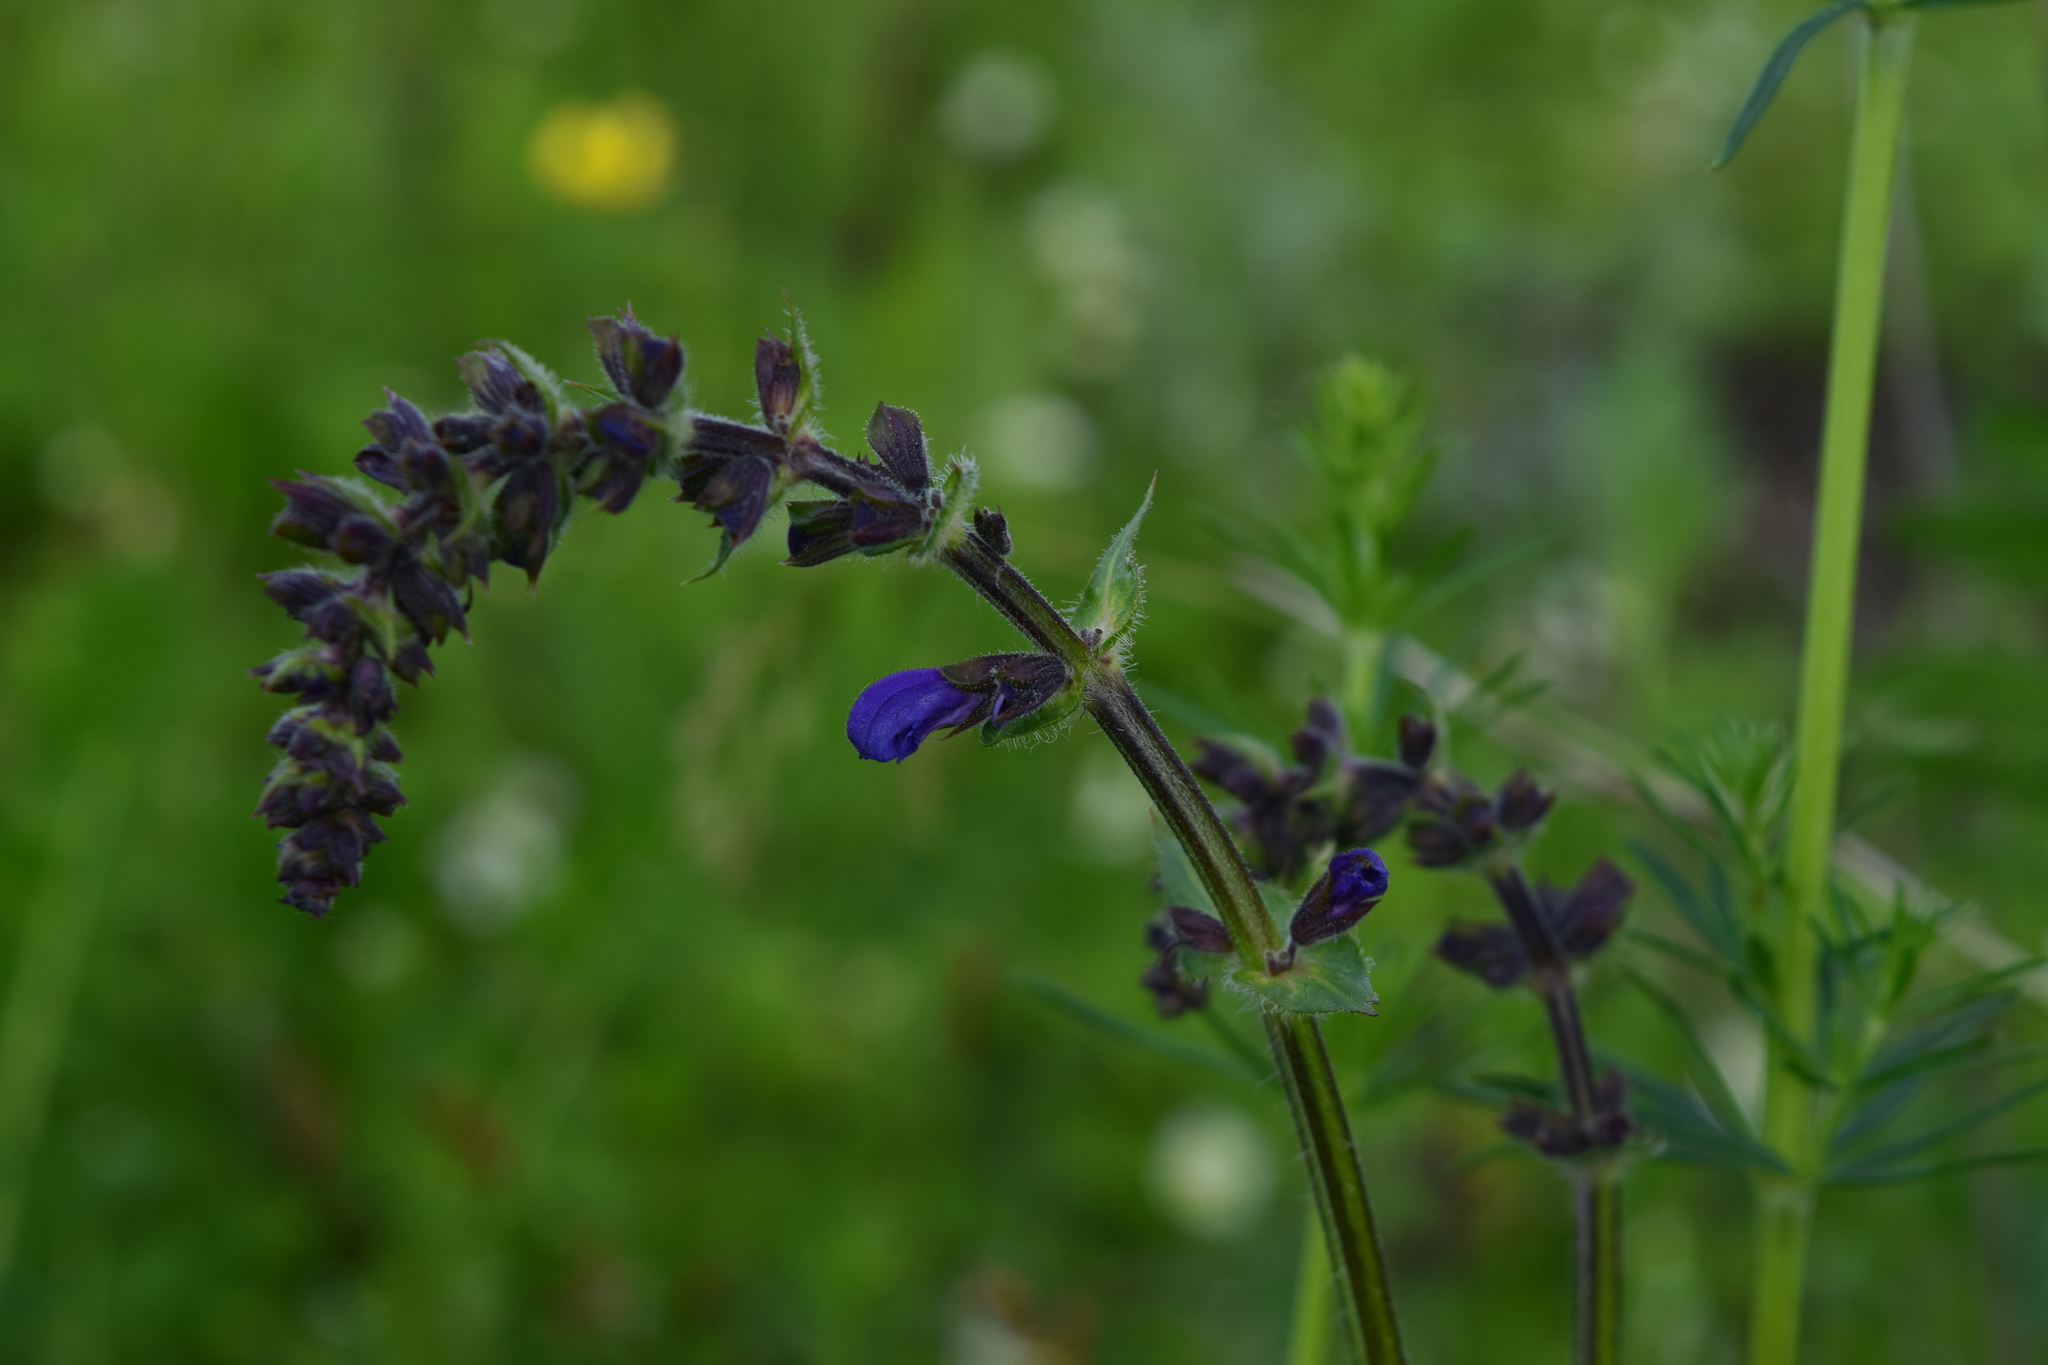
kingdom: Plantae
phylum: Tracheophyta
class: Magnoliopsida
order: Lamiales
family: Lamiaceae
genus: Salvia
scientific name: Salvia pratensis
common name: Meadow sage
